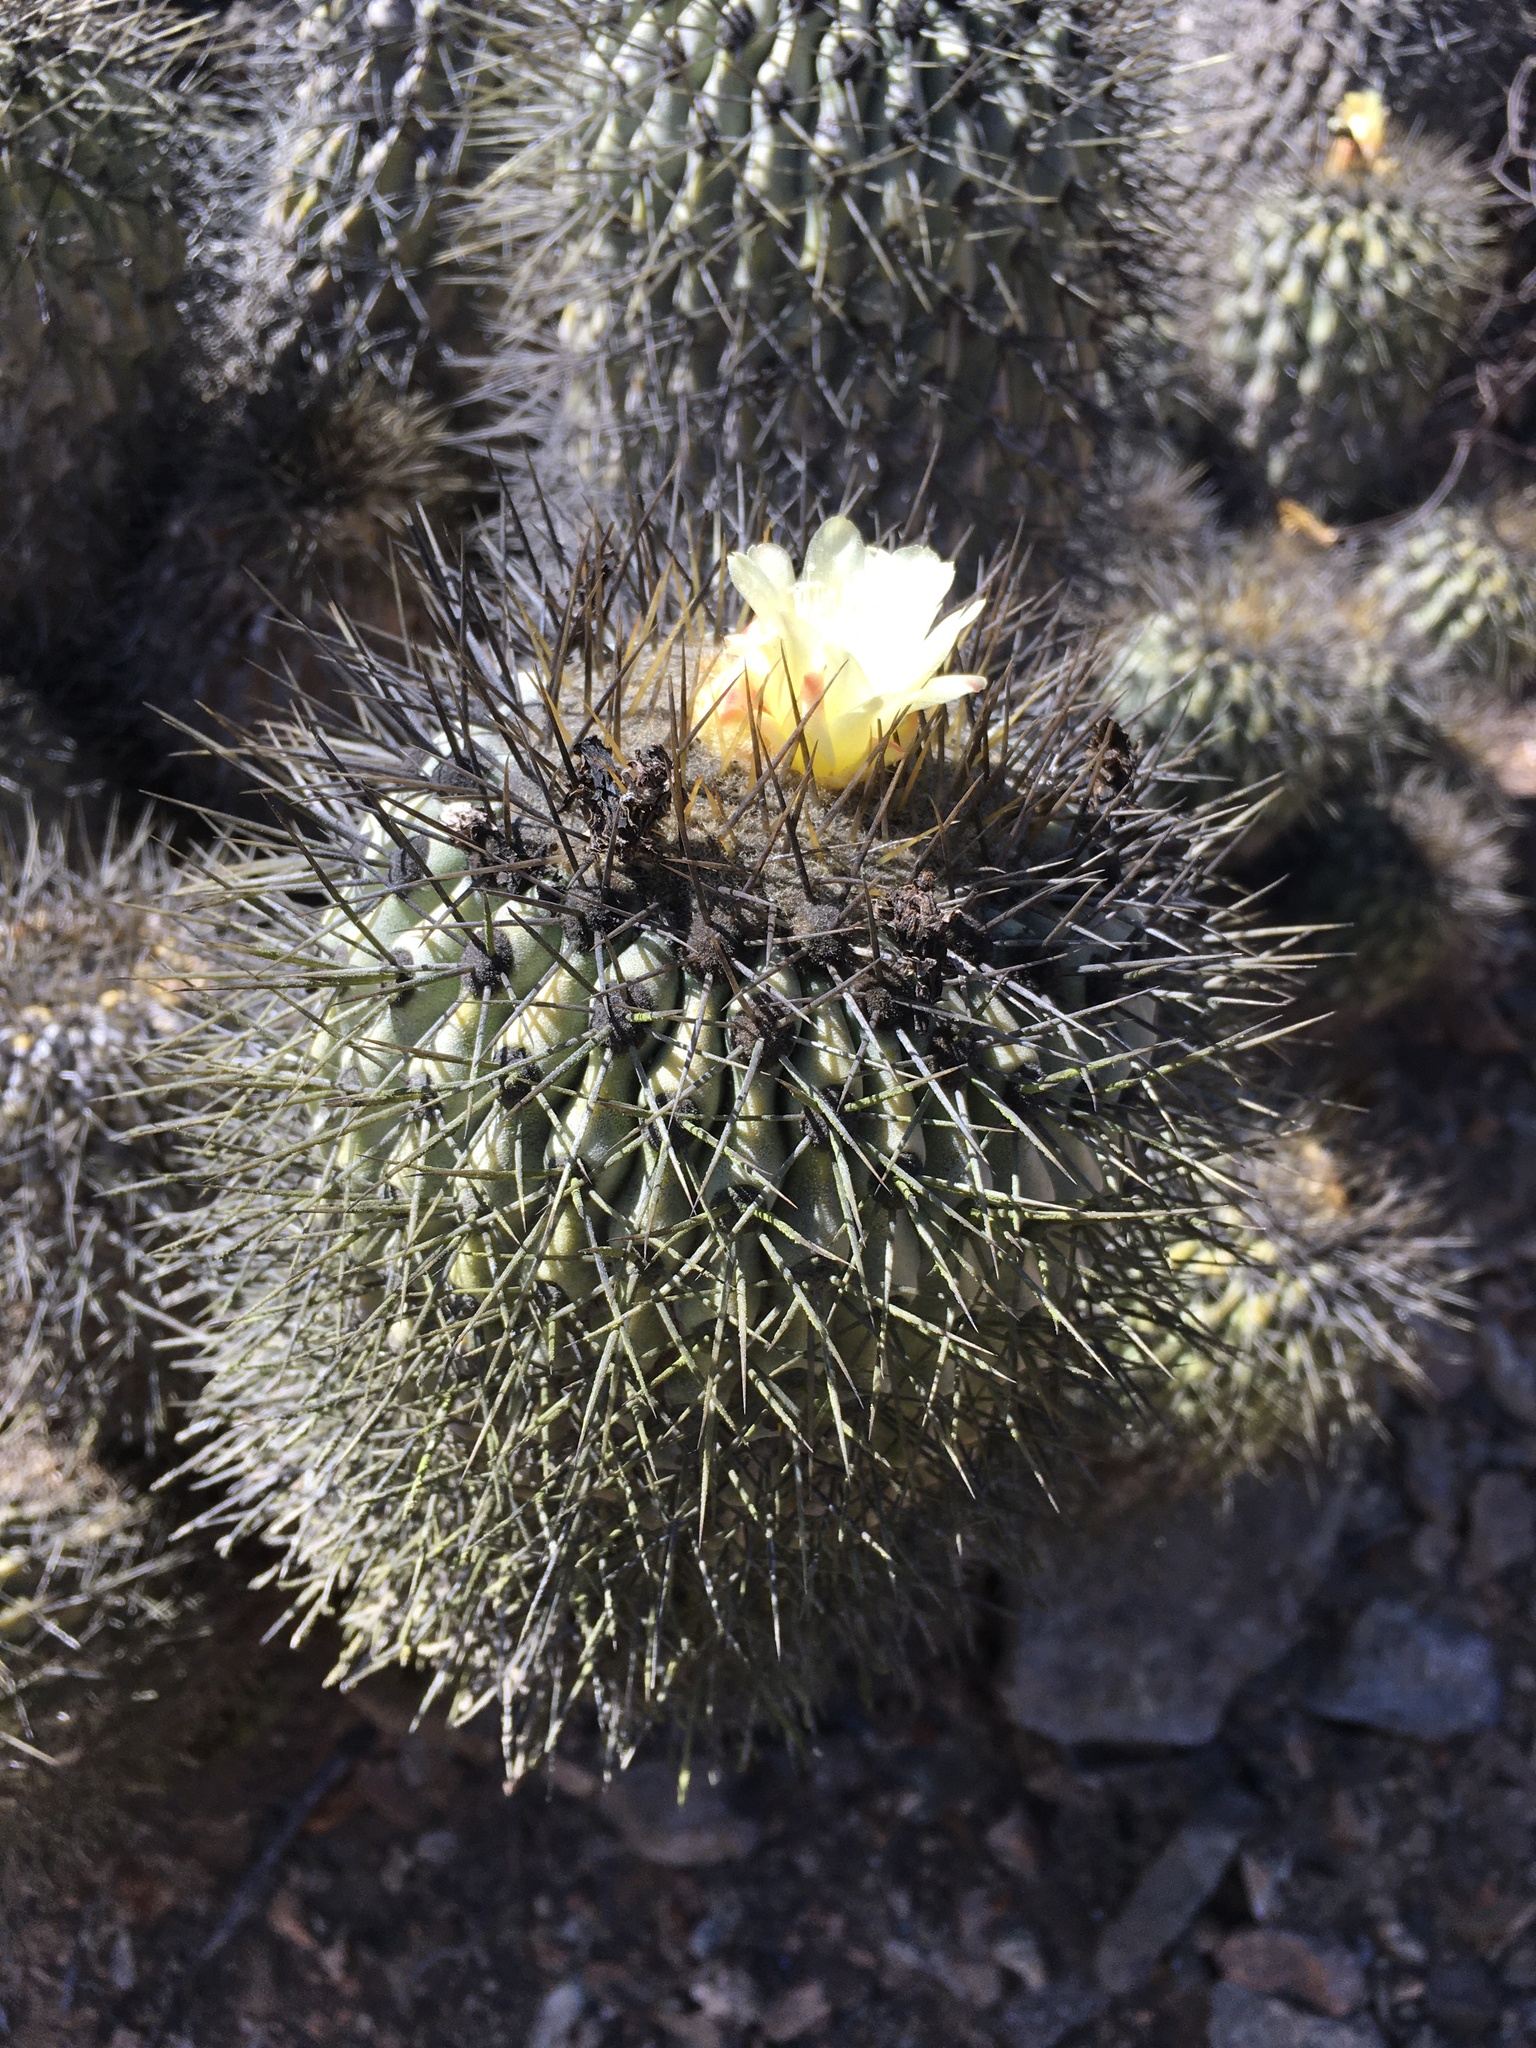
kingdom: Plantae
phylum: Tracheophyta
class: Magnoliopsida
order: Caryophyllales
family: Cactaceae
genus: Copiapoa
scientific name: Copiapoa gigantea
